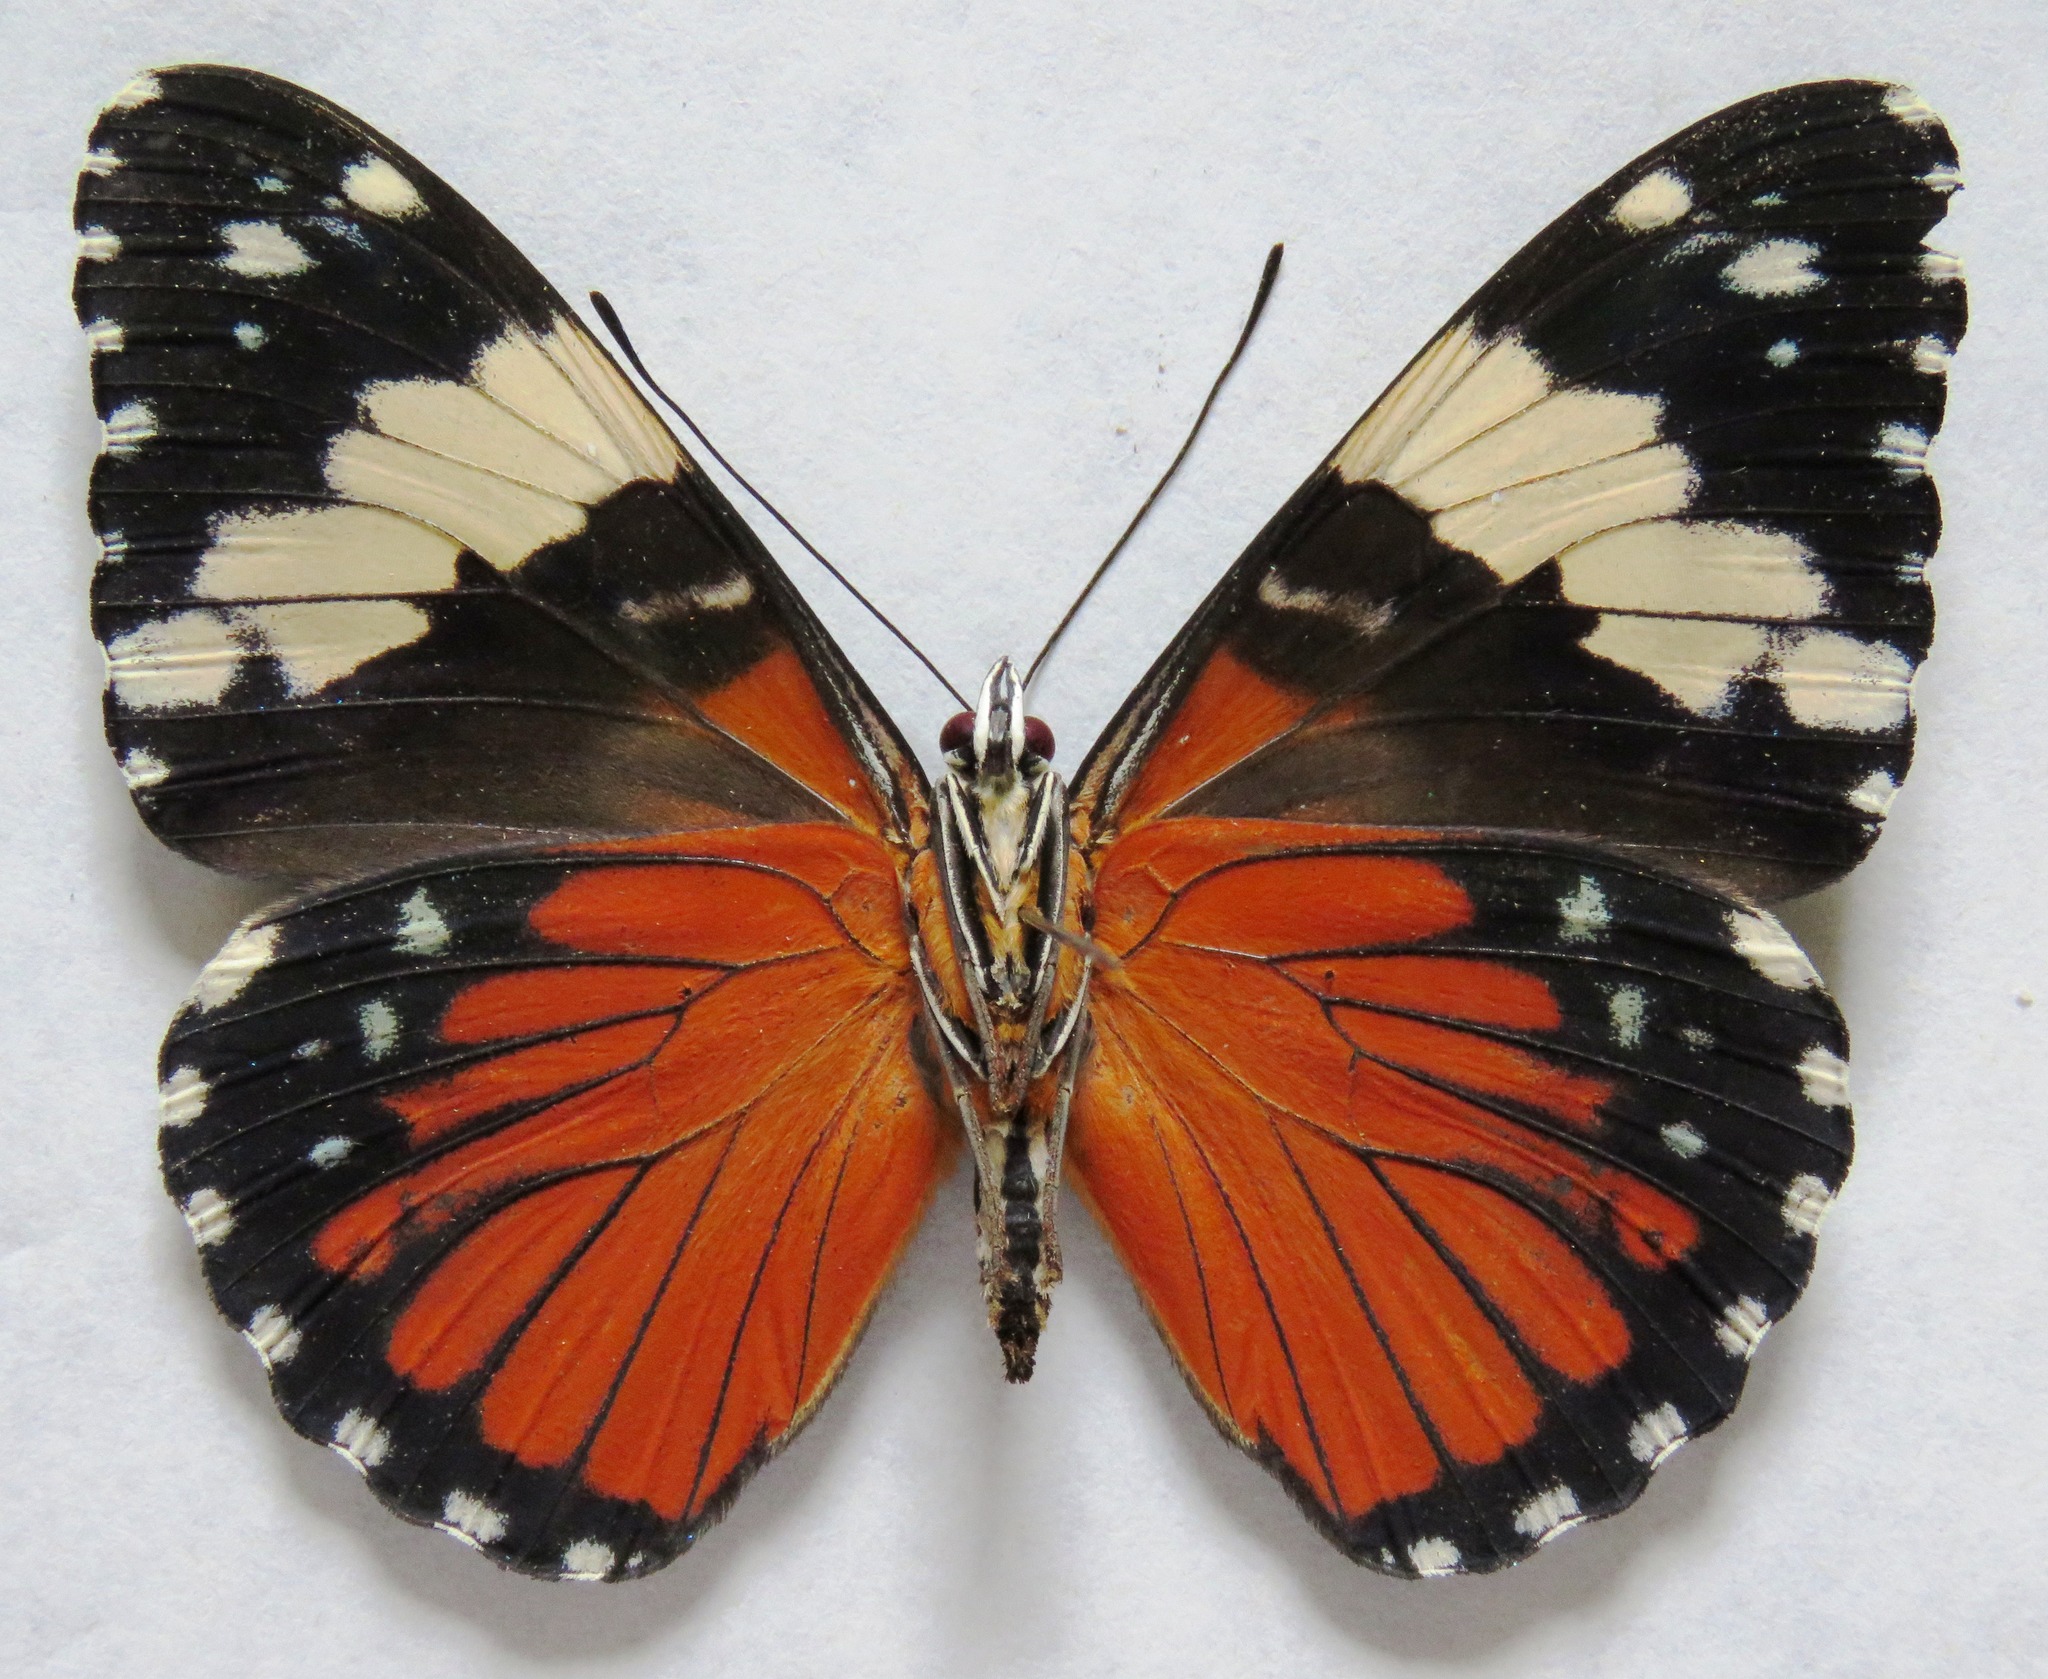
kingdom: Animalia
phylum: Arthropoda
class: Insecta
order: Lepidoptera
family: Nymphalidae
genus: Hamadryas
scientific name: Hamadryas amphinome
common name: Red cracker
